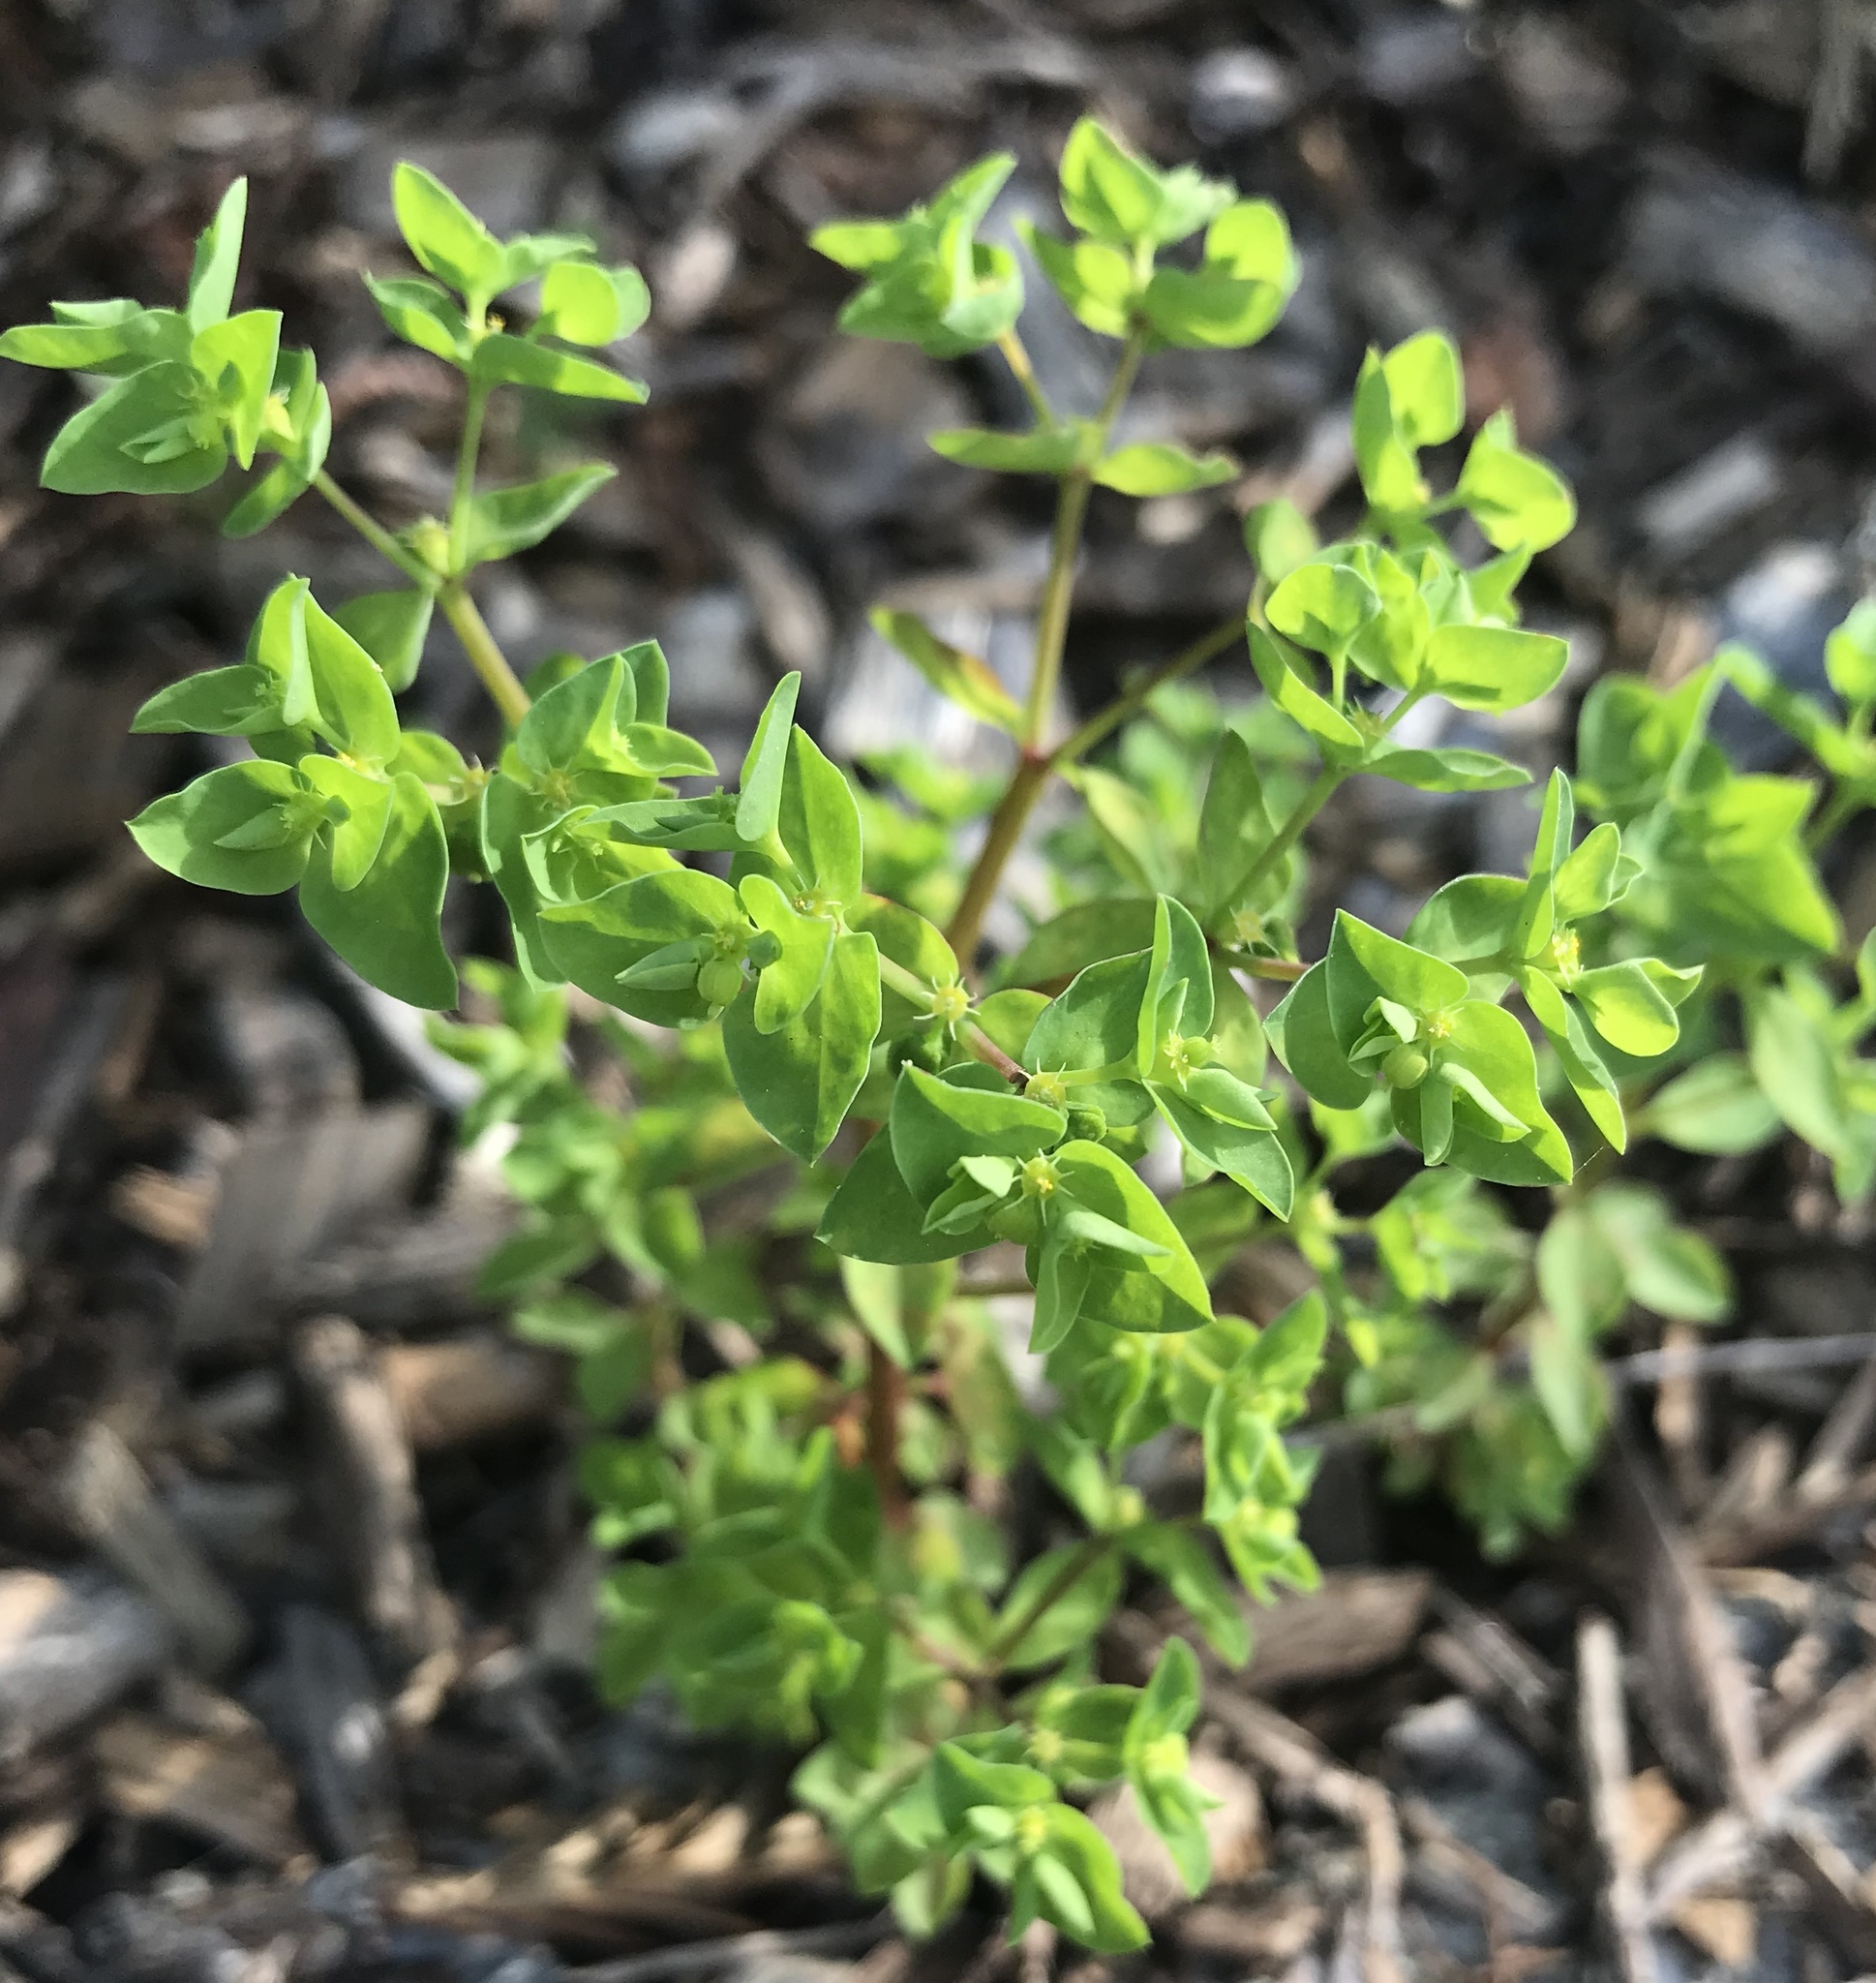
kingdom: Plantae
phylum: Tracheophyta
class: Magnoliopsida
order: Malpighiales
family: Euphorbiaceae
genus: Euphorbia
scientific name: Euphorbia peplus
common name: Petty spurge
